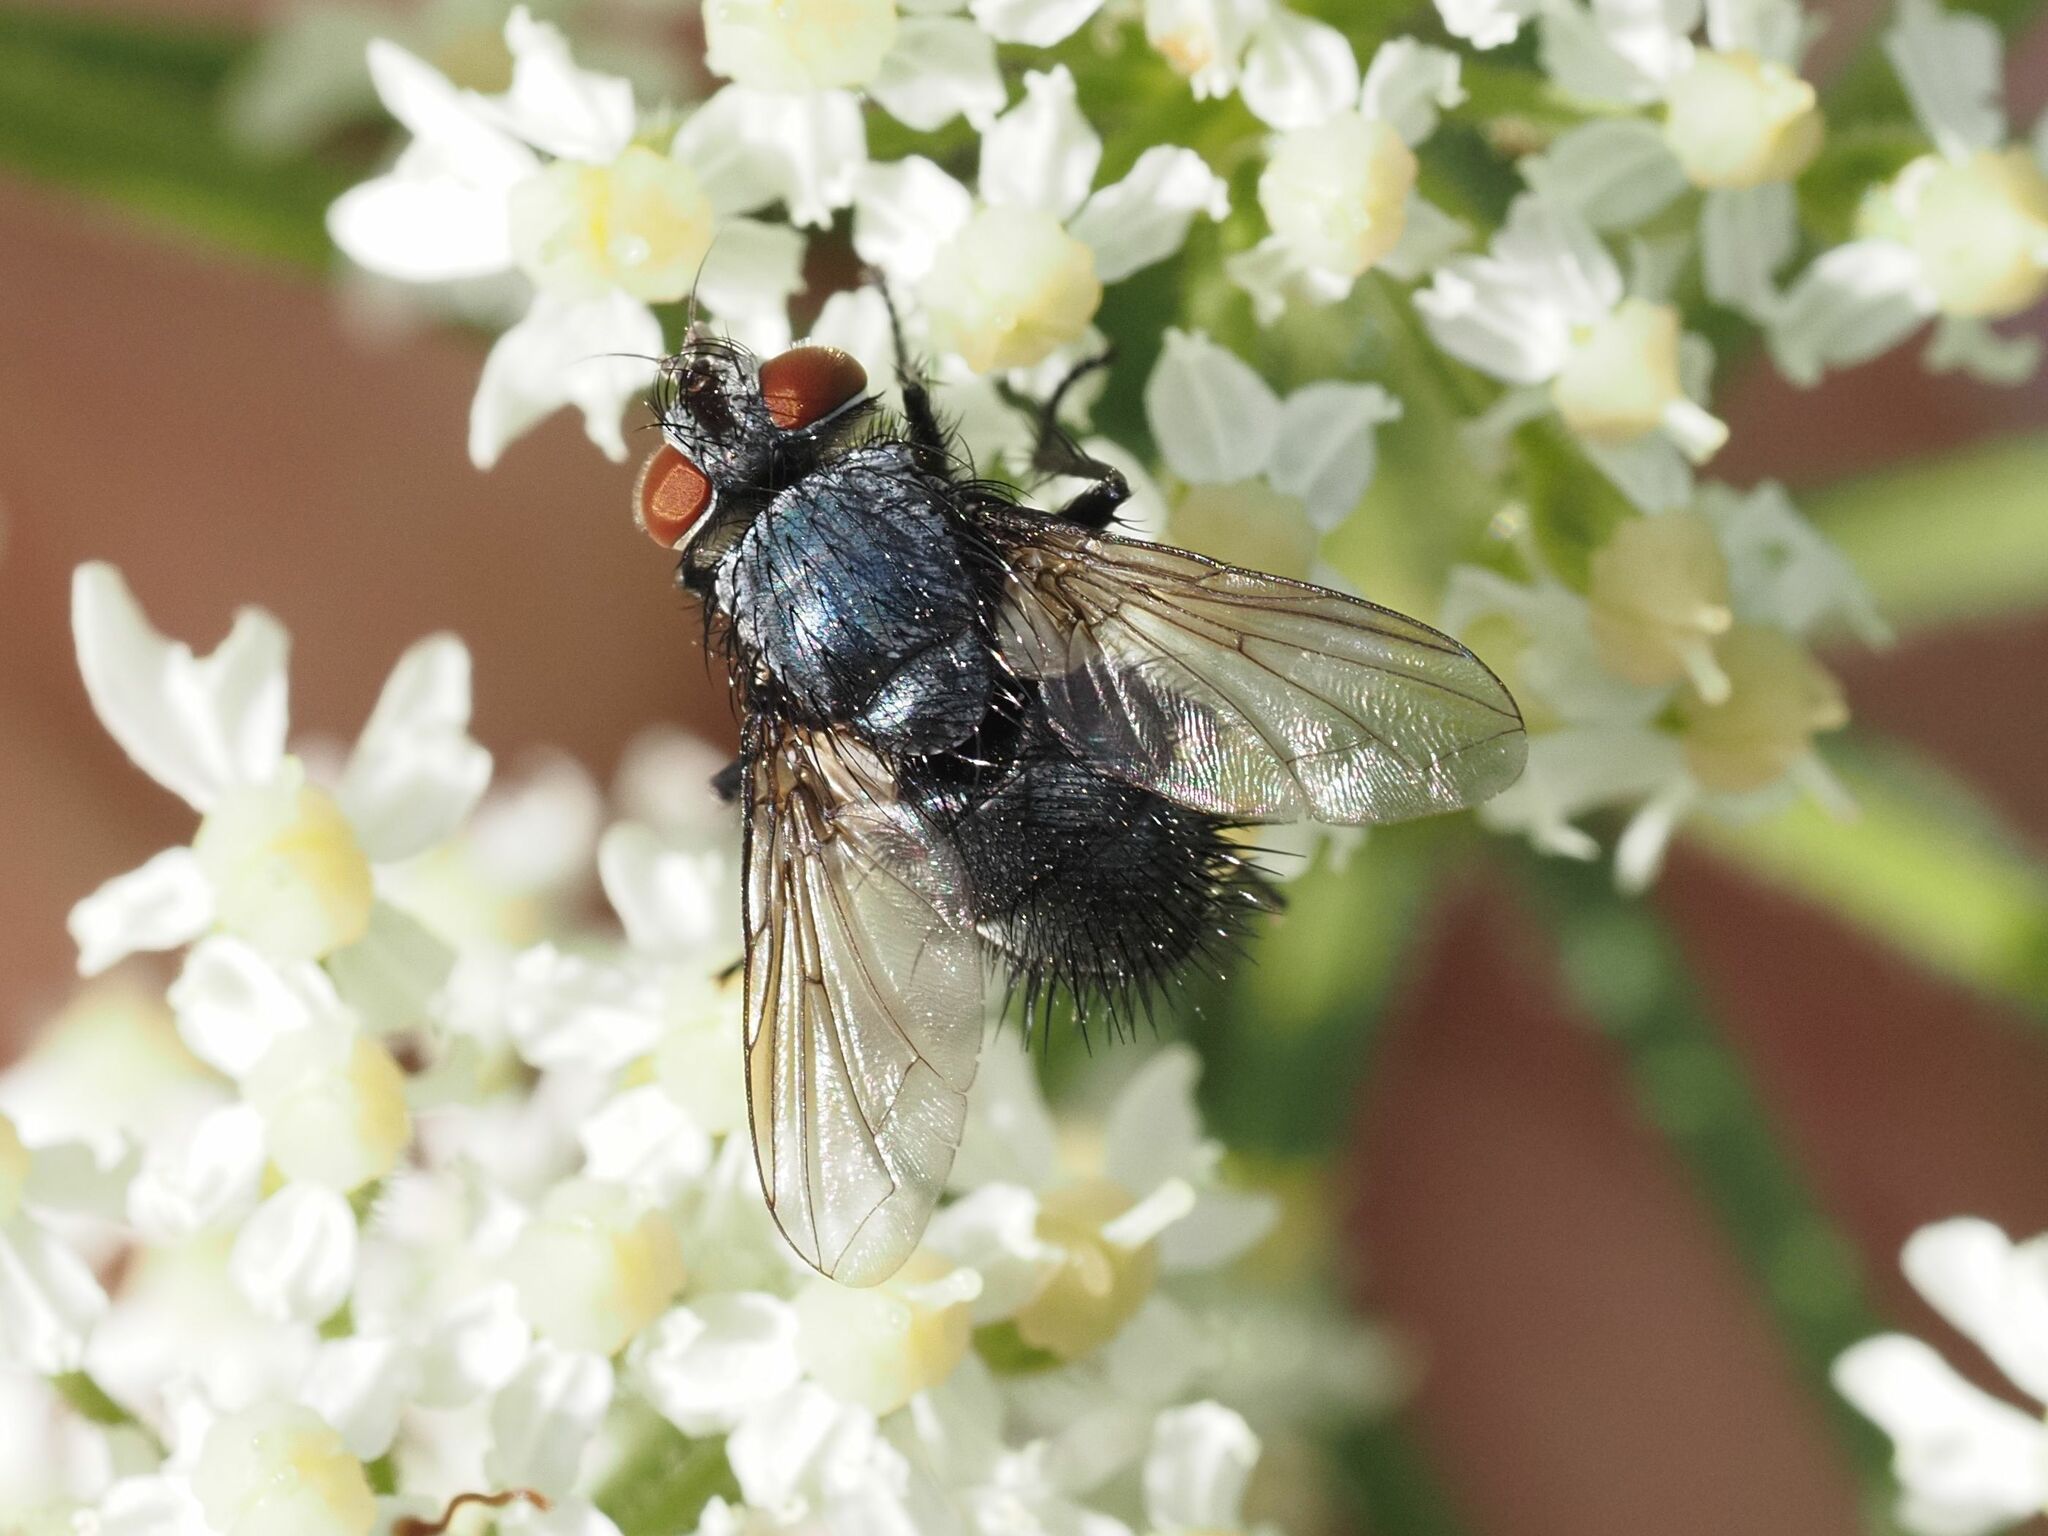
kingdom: Animalia
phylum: Arthropoda
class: Insecta
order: Diptera
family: Tachinidae
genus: Epicampocera
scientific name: Epicampocera succincta
